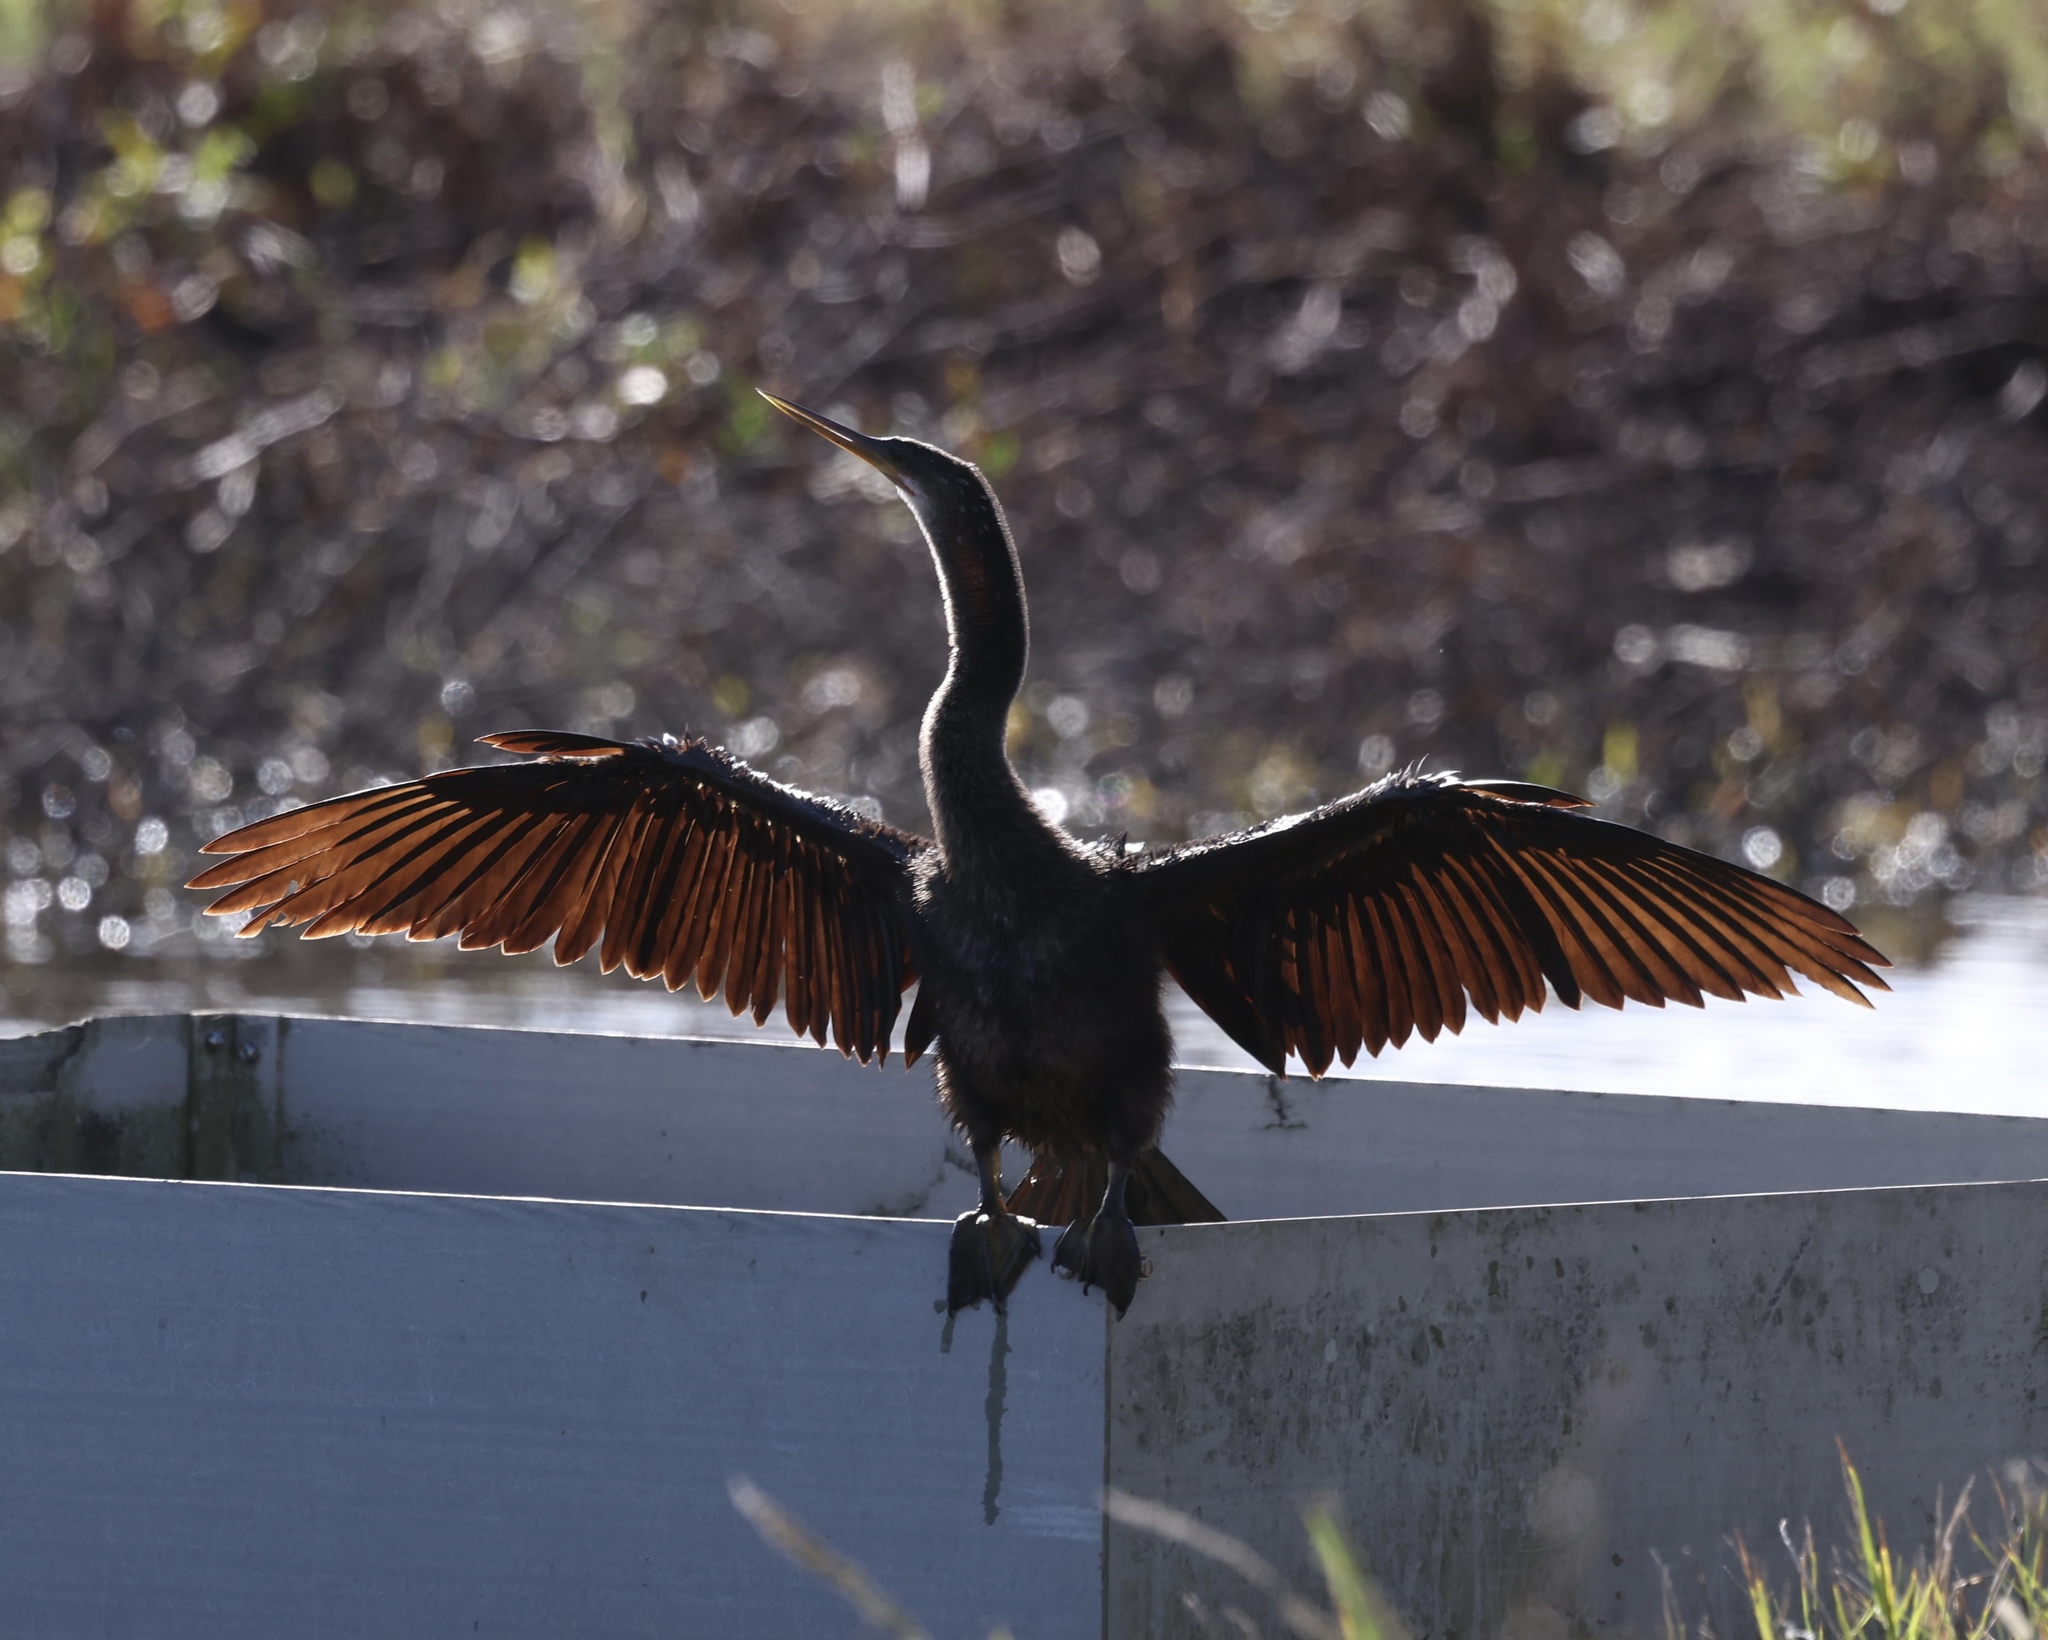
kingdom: Animalia
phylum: Chordata
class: Aves
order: Suliformes
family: Anhingidae
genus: Anhinga
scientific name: Anhinga anhinga
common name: Anhinga
